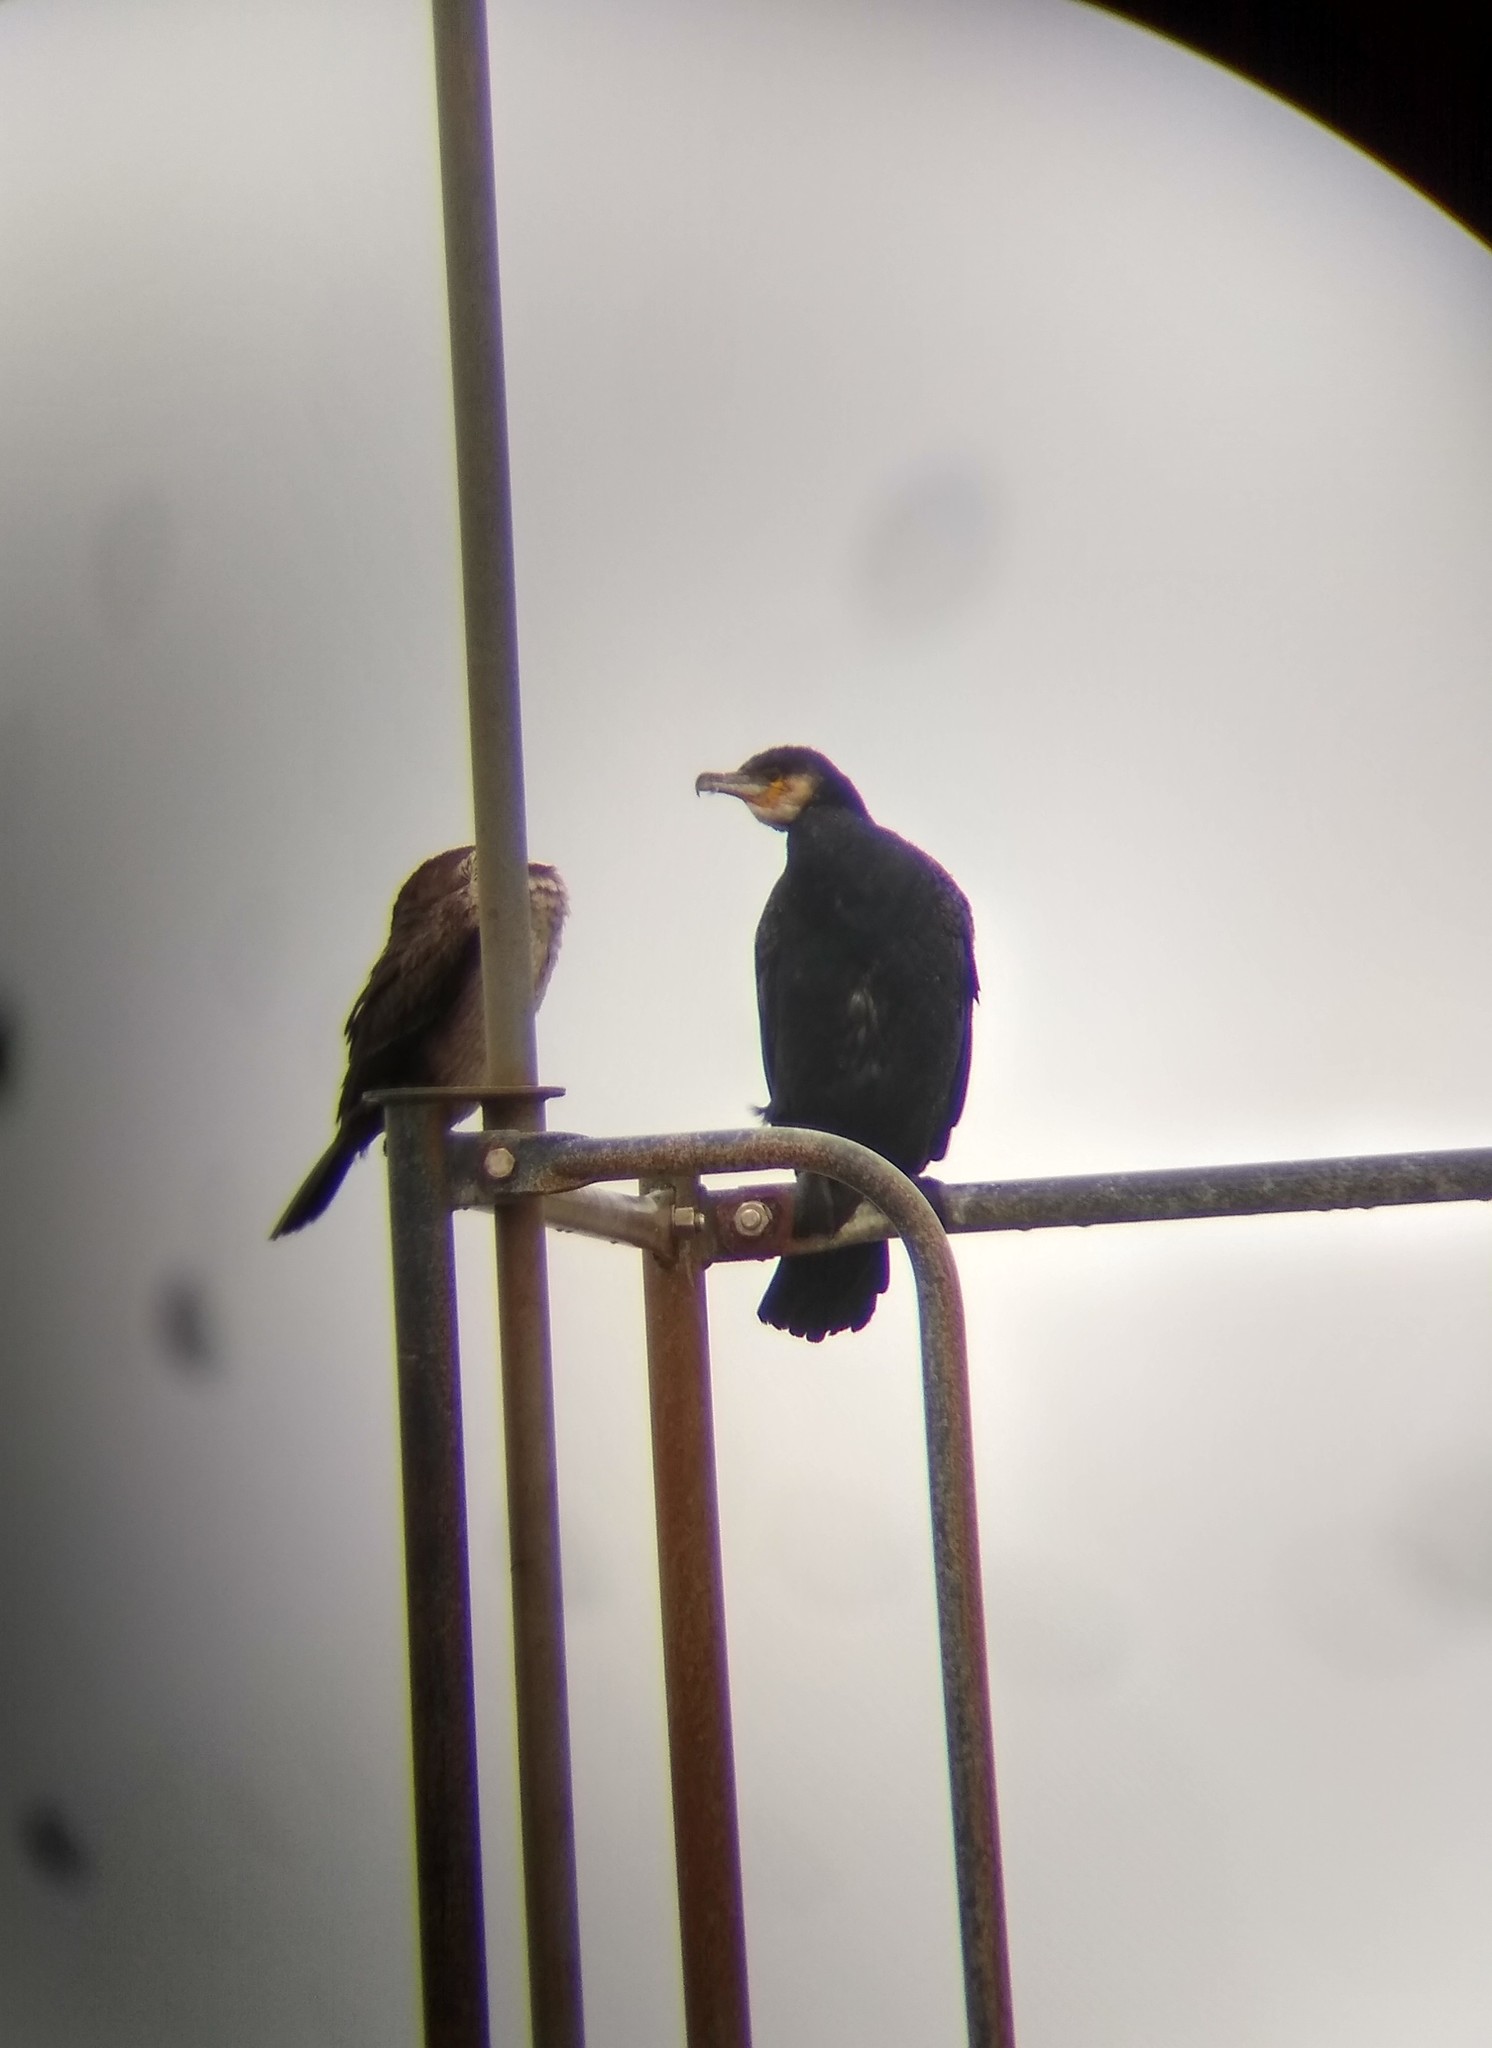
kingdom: Animalia
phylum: Chordata
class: Aves
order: Suliformes
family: Phalacrocoracidae
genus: Phalacrocorax
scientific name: Phalacrocorax carbo
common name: Great cormorant
